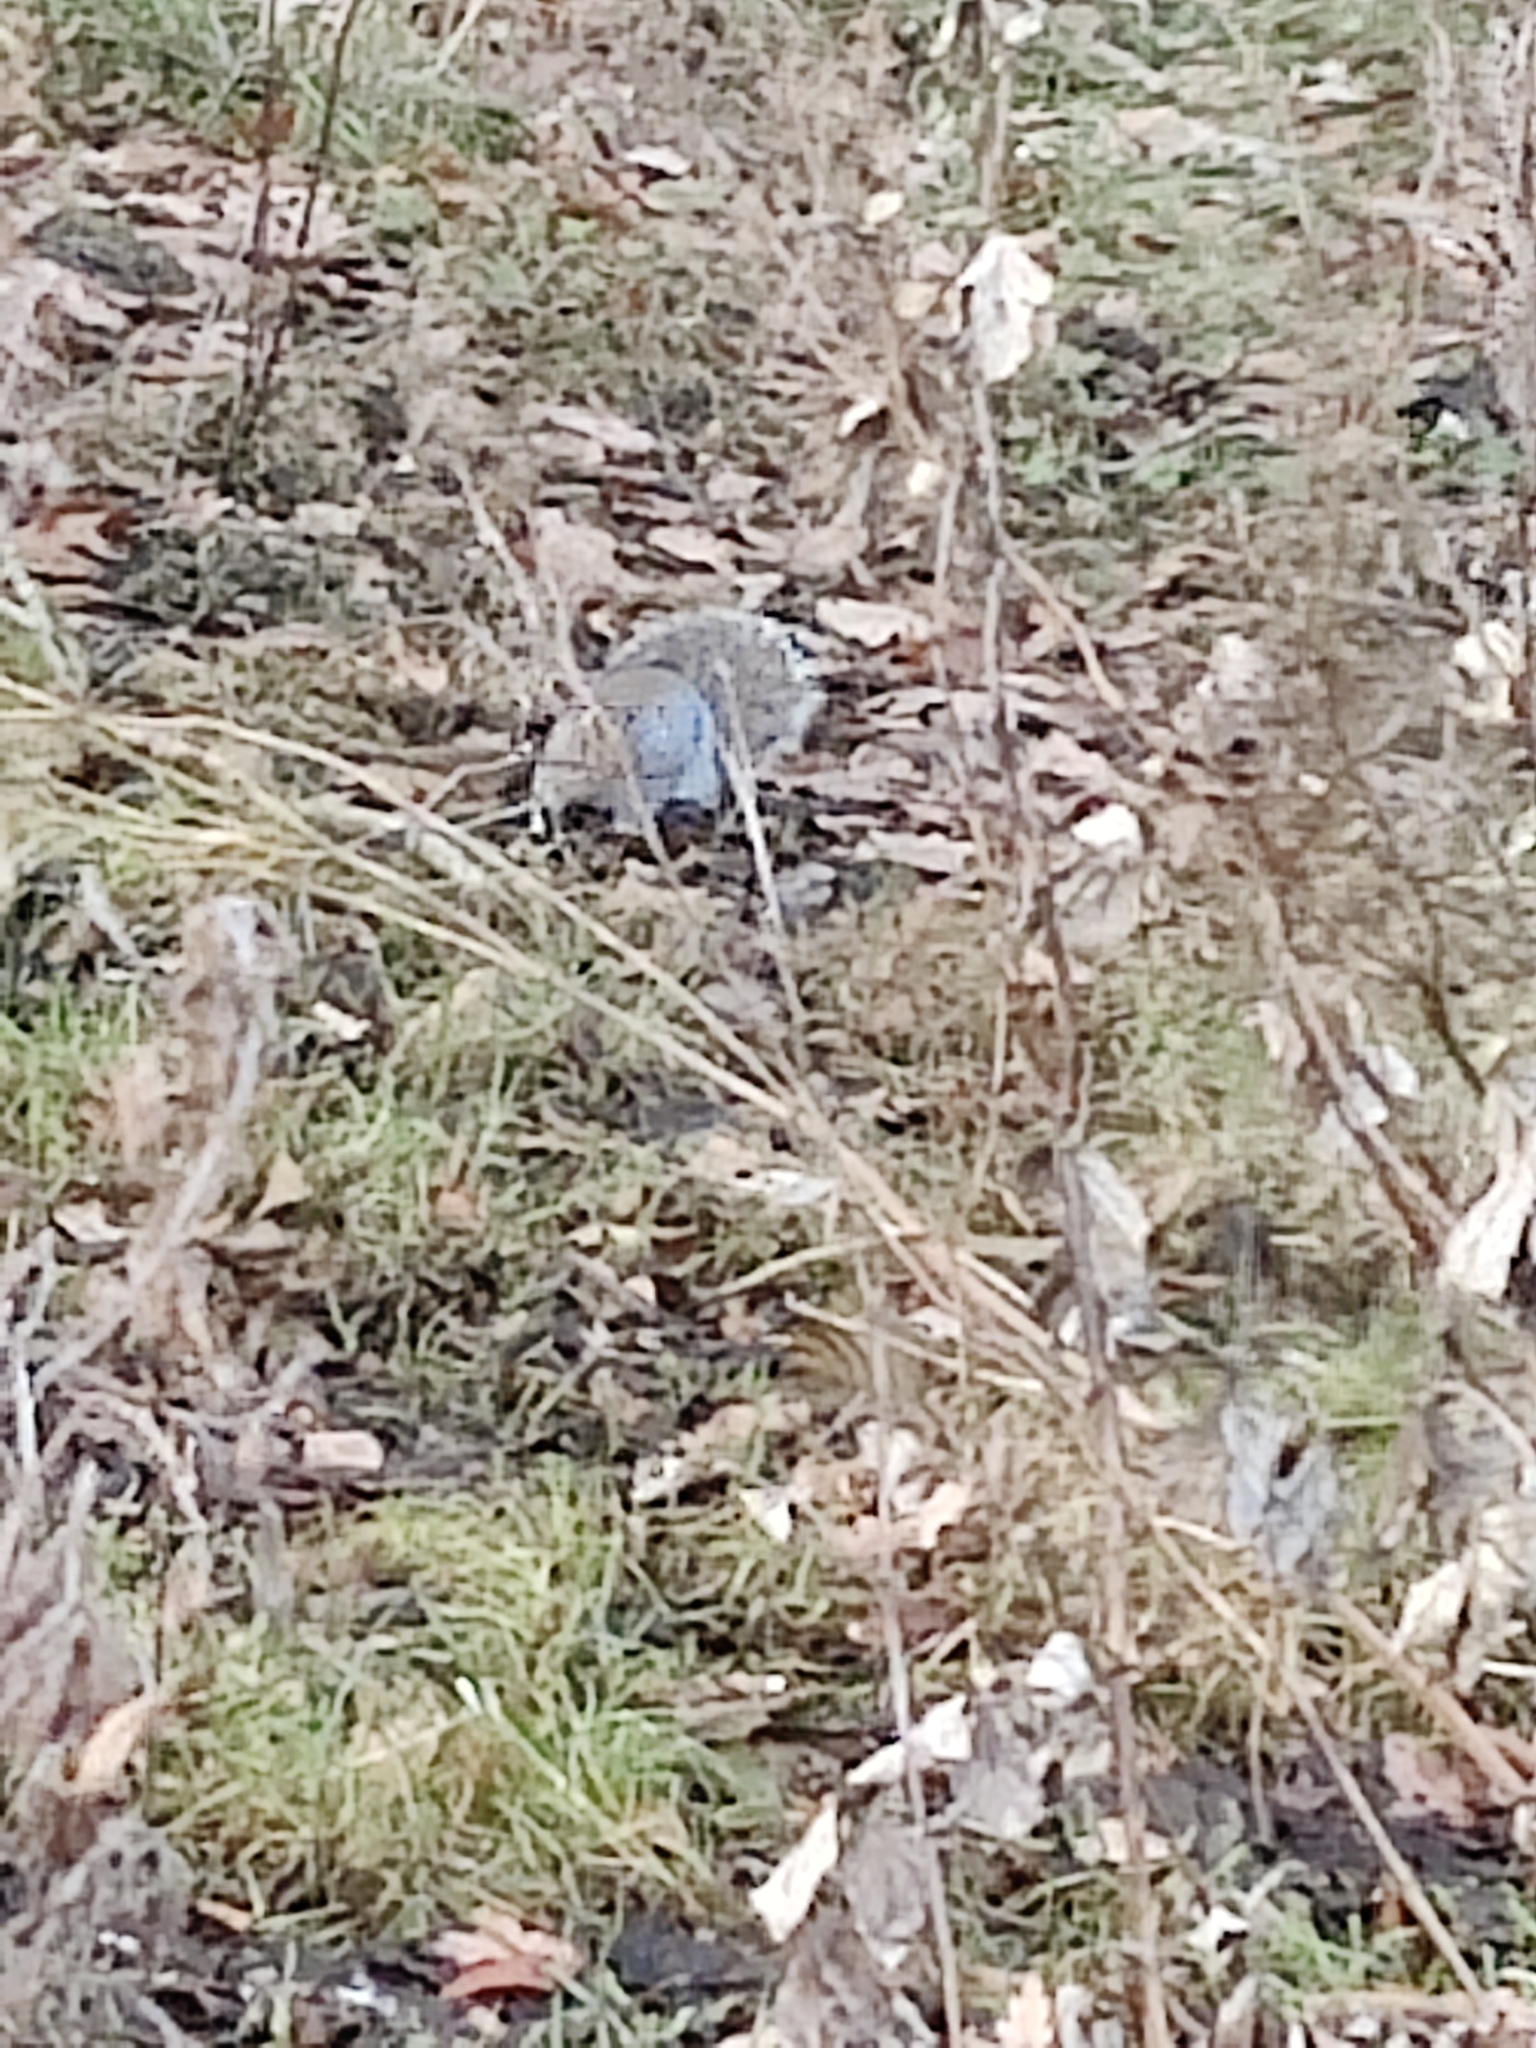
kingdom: Animalia
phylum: Chordata
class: Mammalia
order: Rodentia
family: Sciuridae
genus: Sciurus
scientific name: Sciurus carolinensis
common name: Eastern gray squirrel
